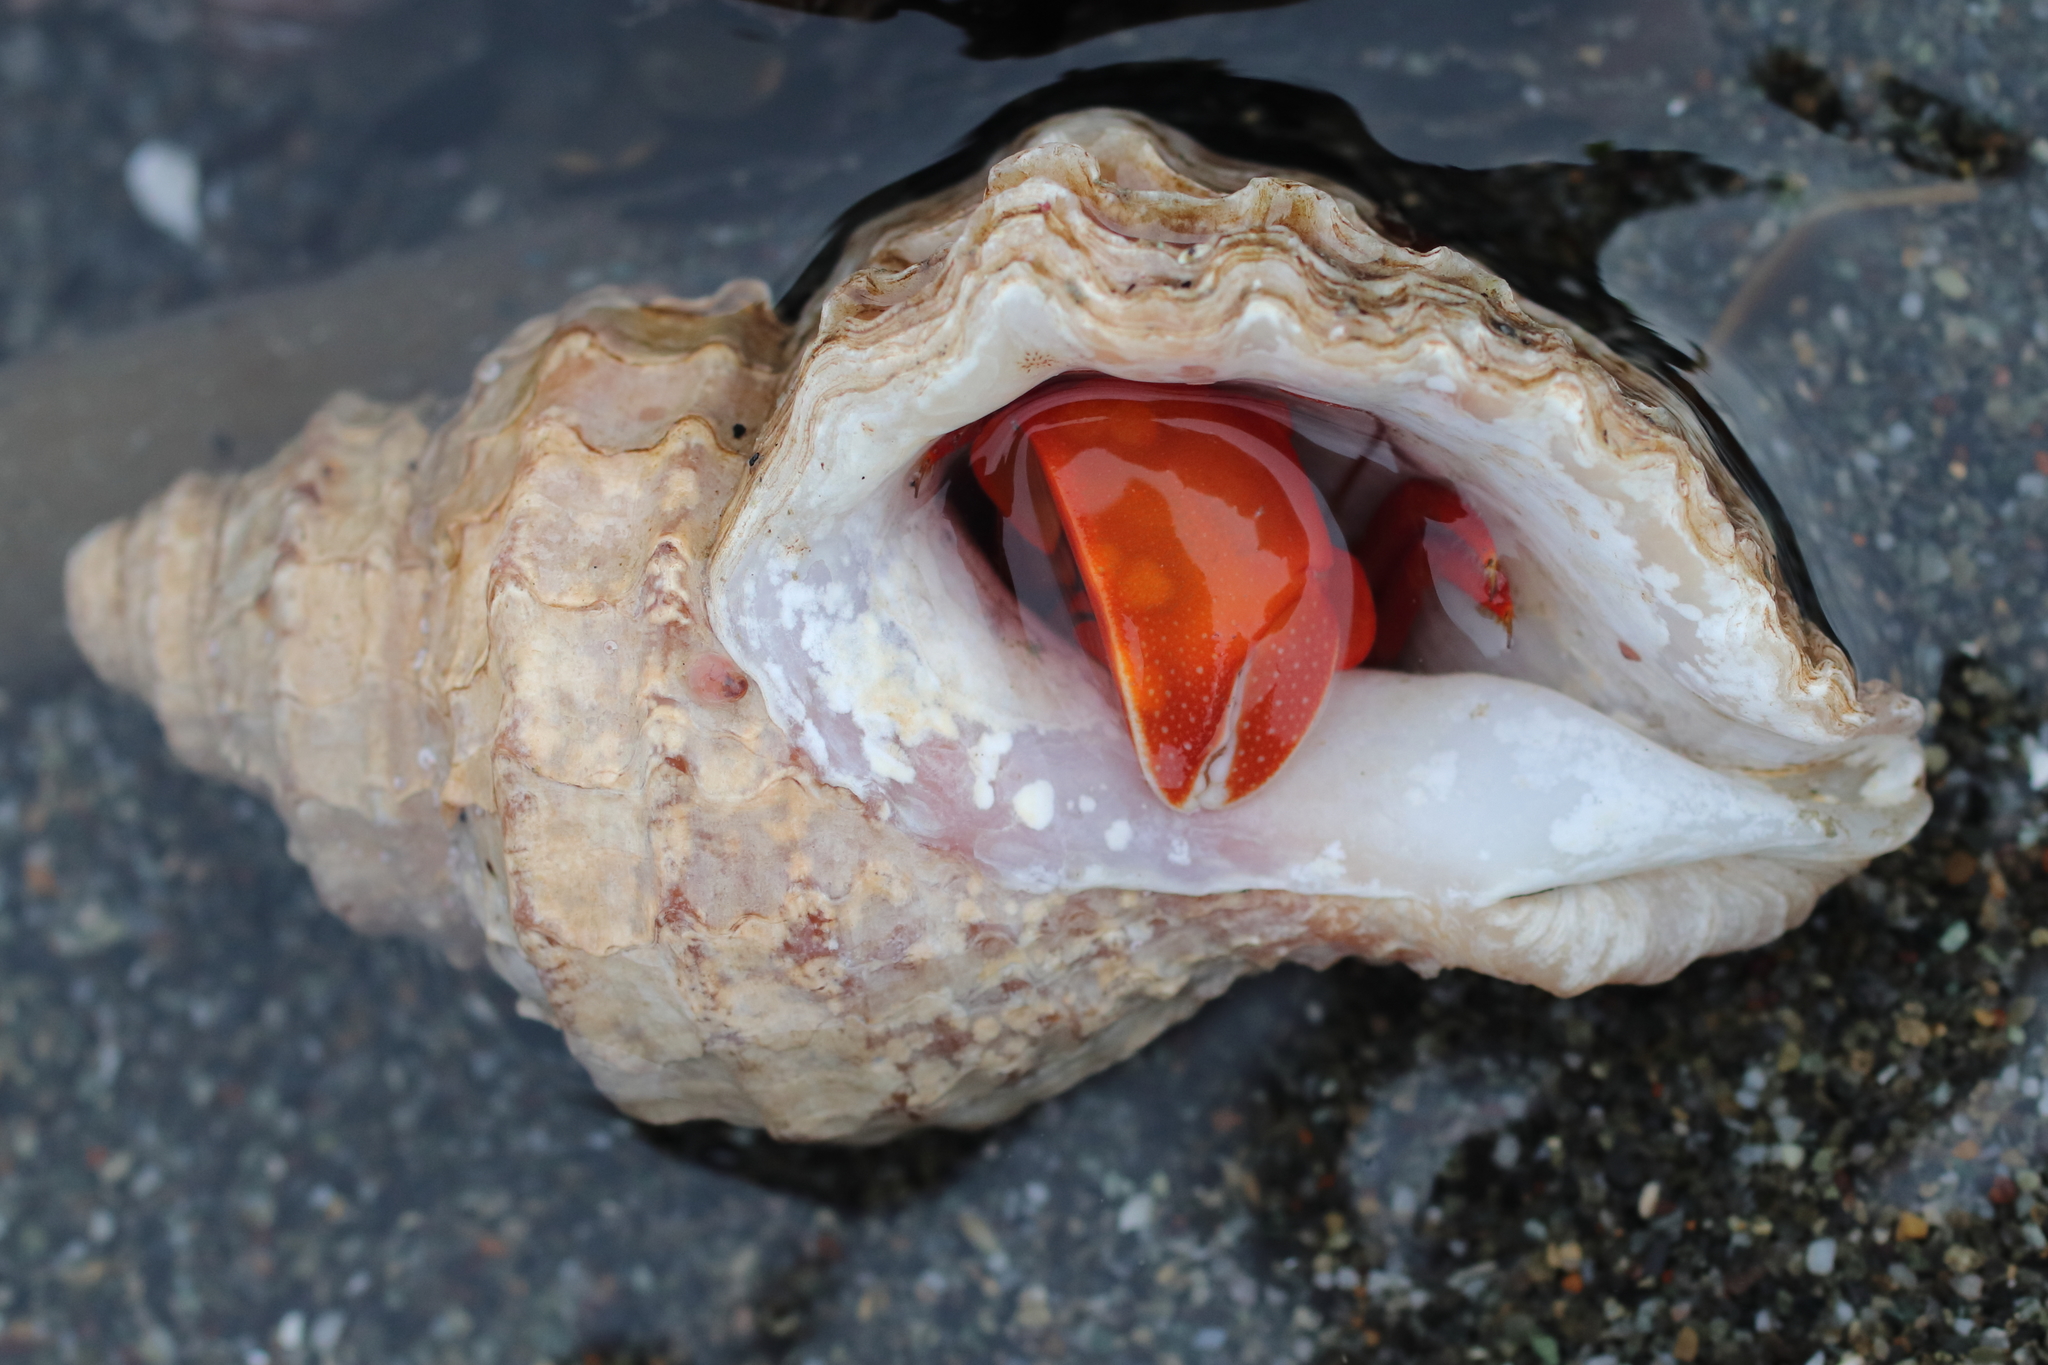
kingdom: Animalia
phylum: Arthropoda
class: Malacostraca
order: Decapoda
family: Paguridae
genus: Elassochirus
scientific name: Elassochirus gilli
